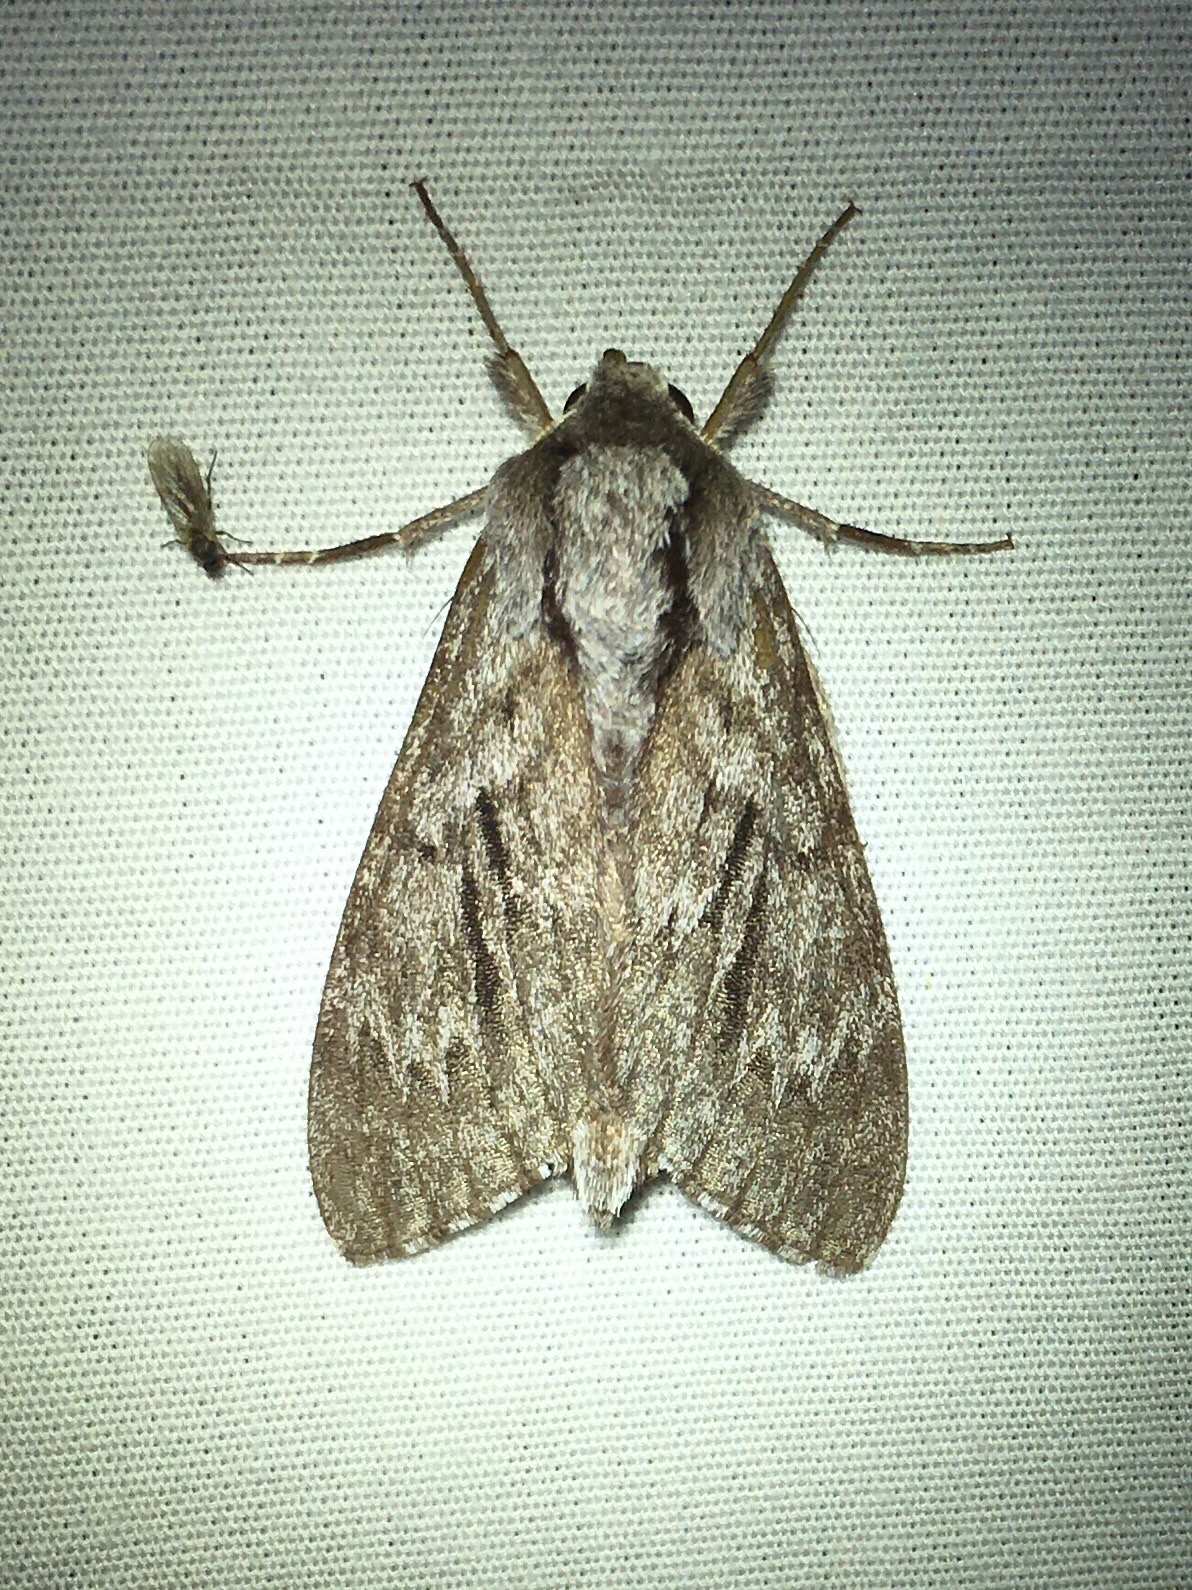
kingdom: Animalia
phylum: Arthropoda
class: Insecta
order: Lepidoptera
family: Sphingidae
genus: Lapara
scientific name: Lapara bombycoides
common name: Northern pine sphinx
